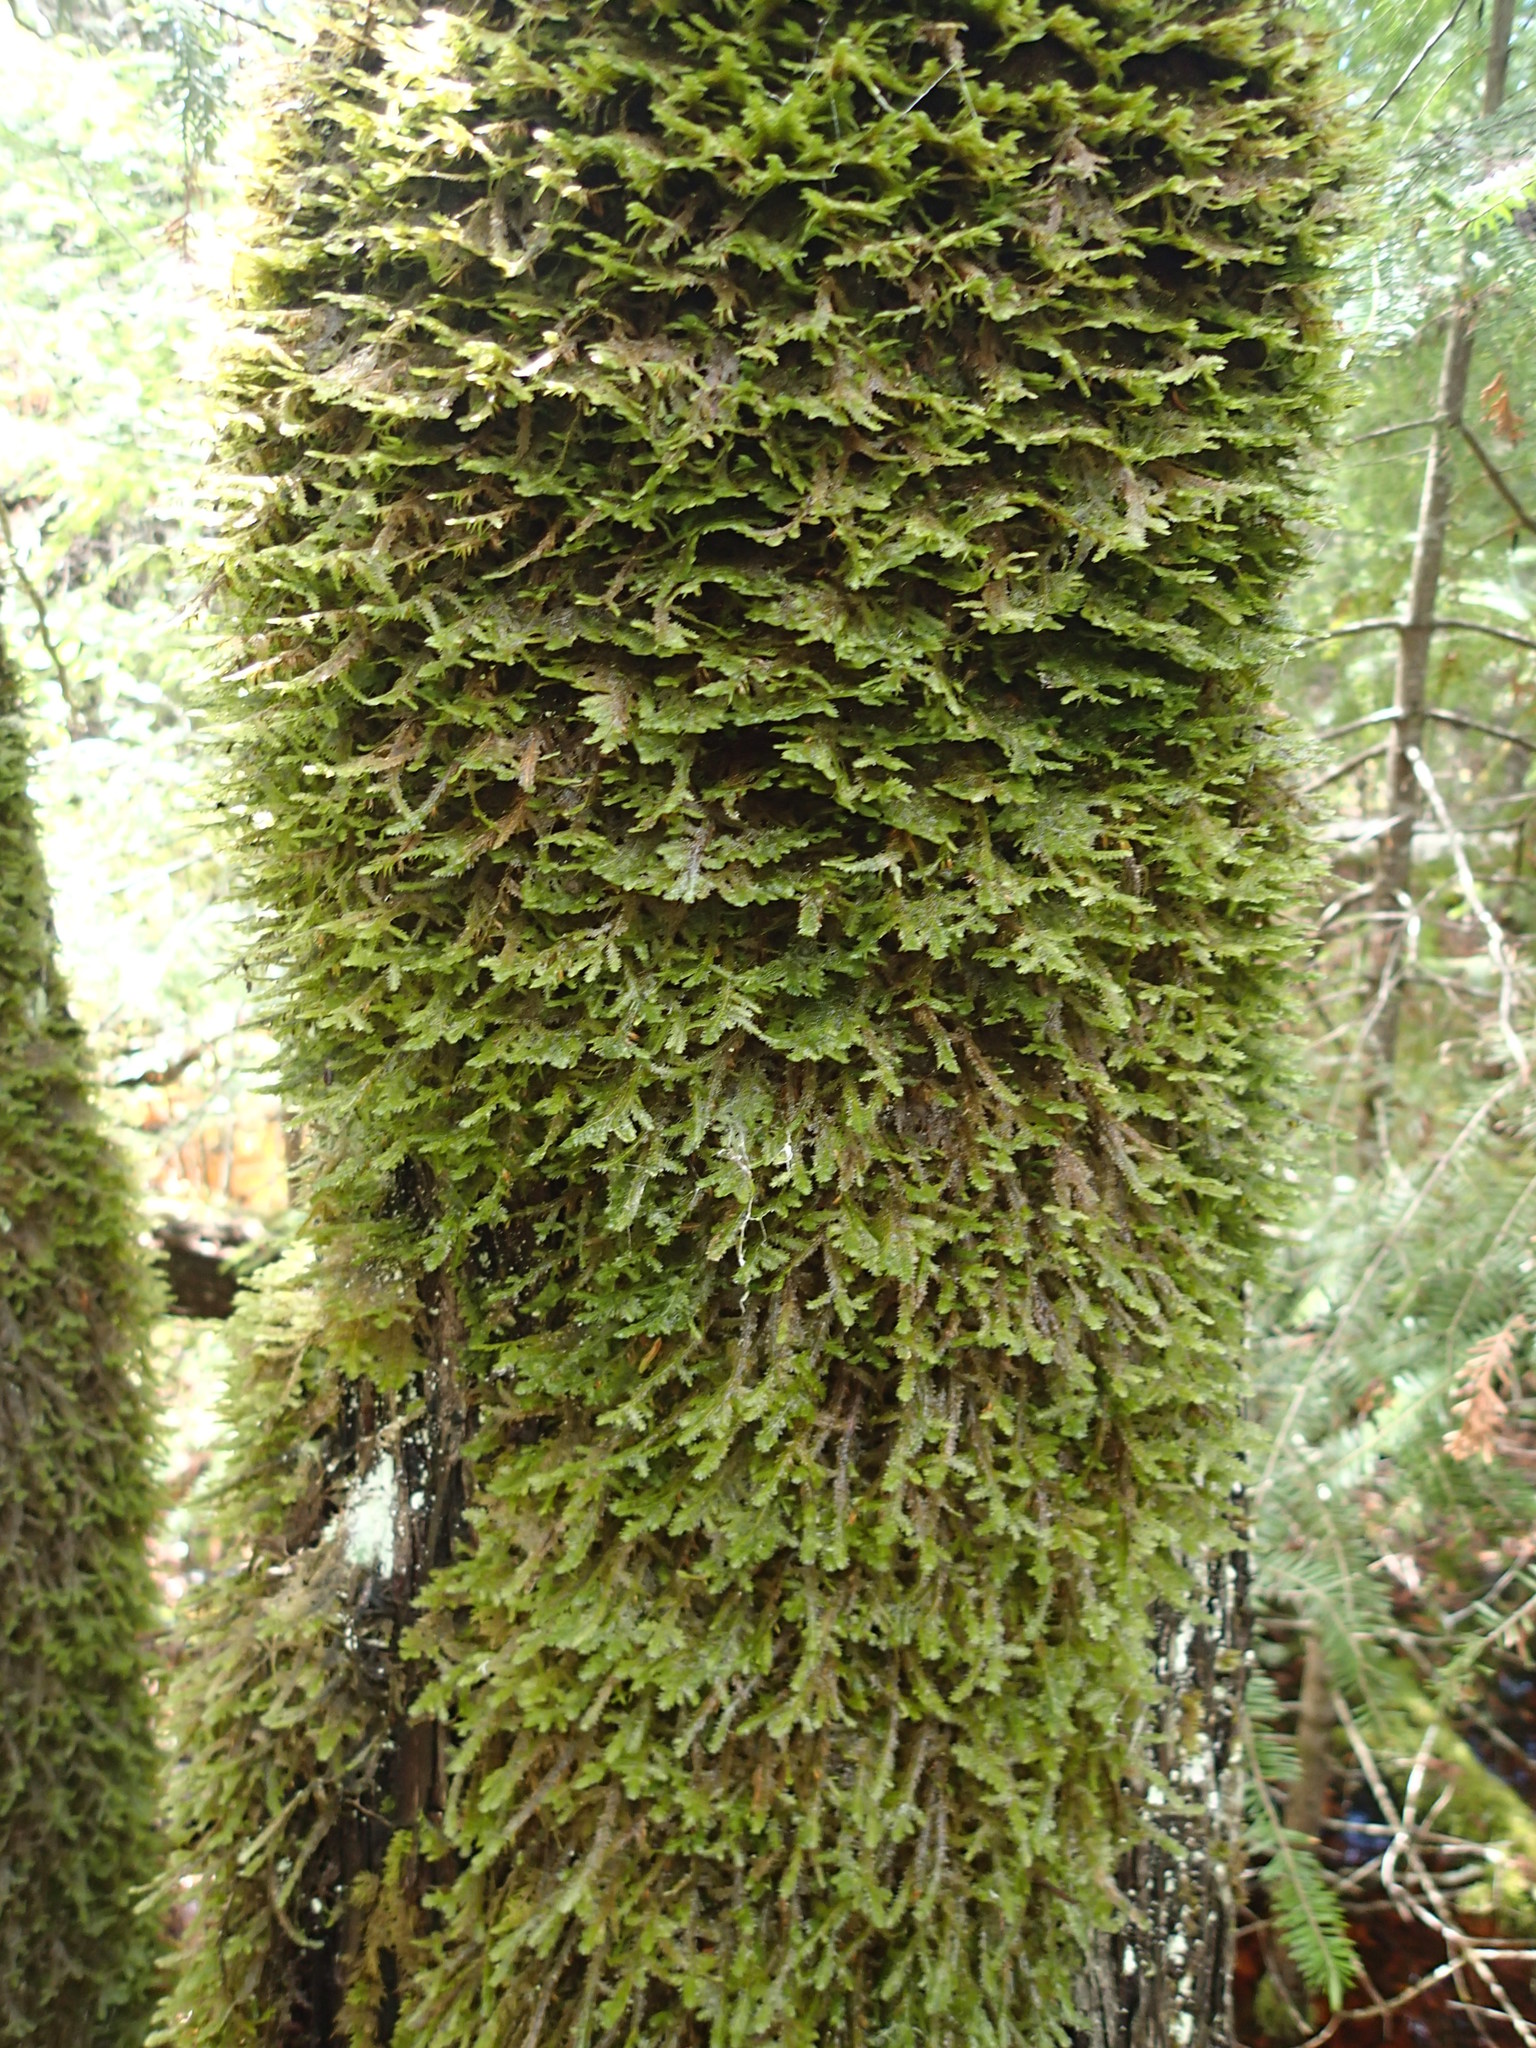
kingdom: Plantae
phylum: Bryophyta
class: Bryopsida
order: Hypnales
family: Neckeraceae
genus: Neckera
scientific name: Neckera pennata
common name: Feathery neckera
